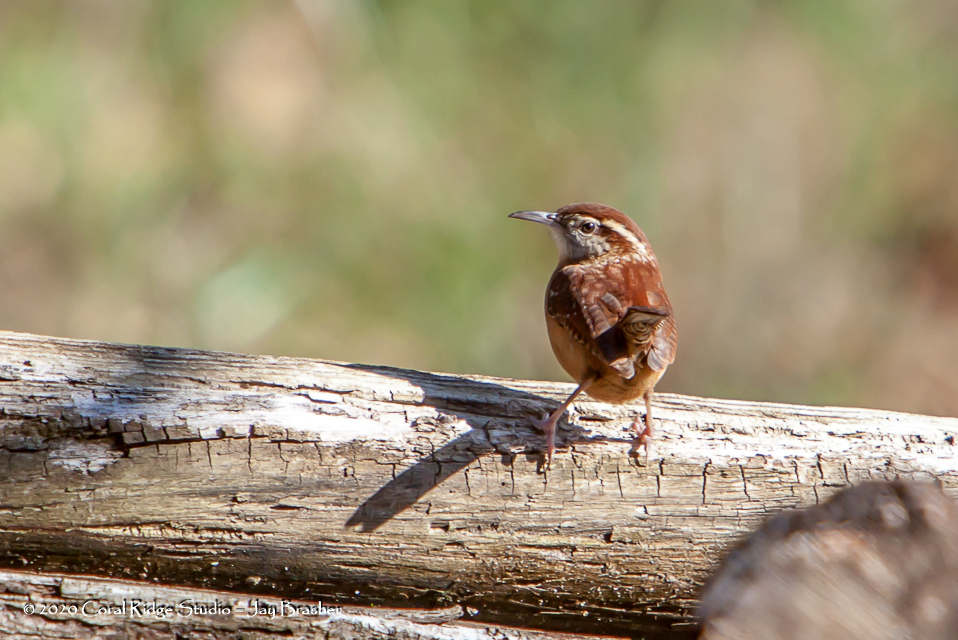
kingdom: Animalia
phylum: Chordata
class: Aves
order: Passeriformes
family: Troglodytidae
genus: Thryothorus
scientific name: Thryothorus ludovicianus
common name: Carolina wren
